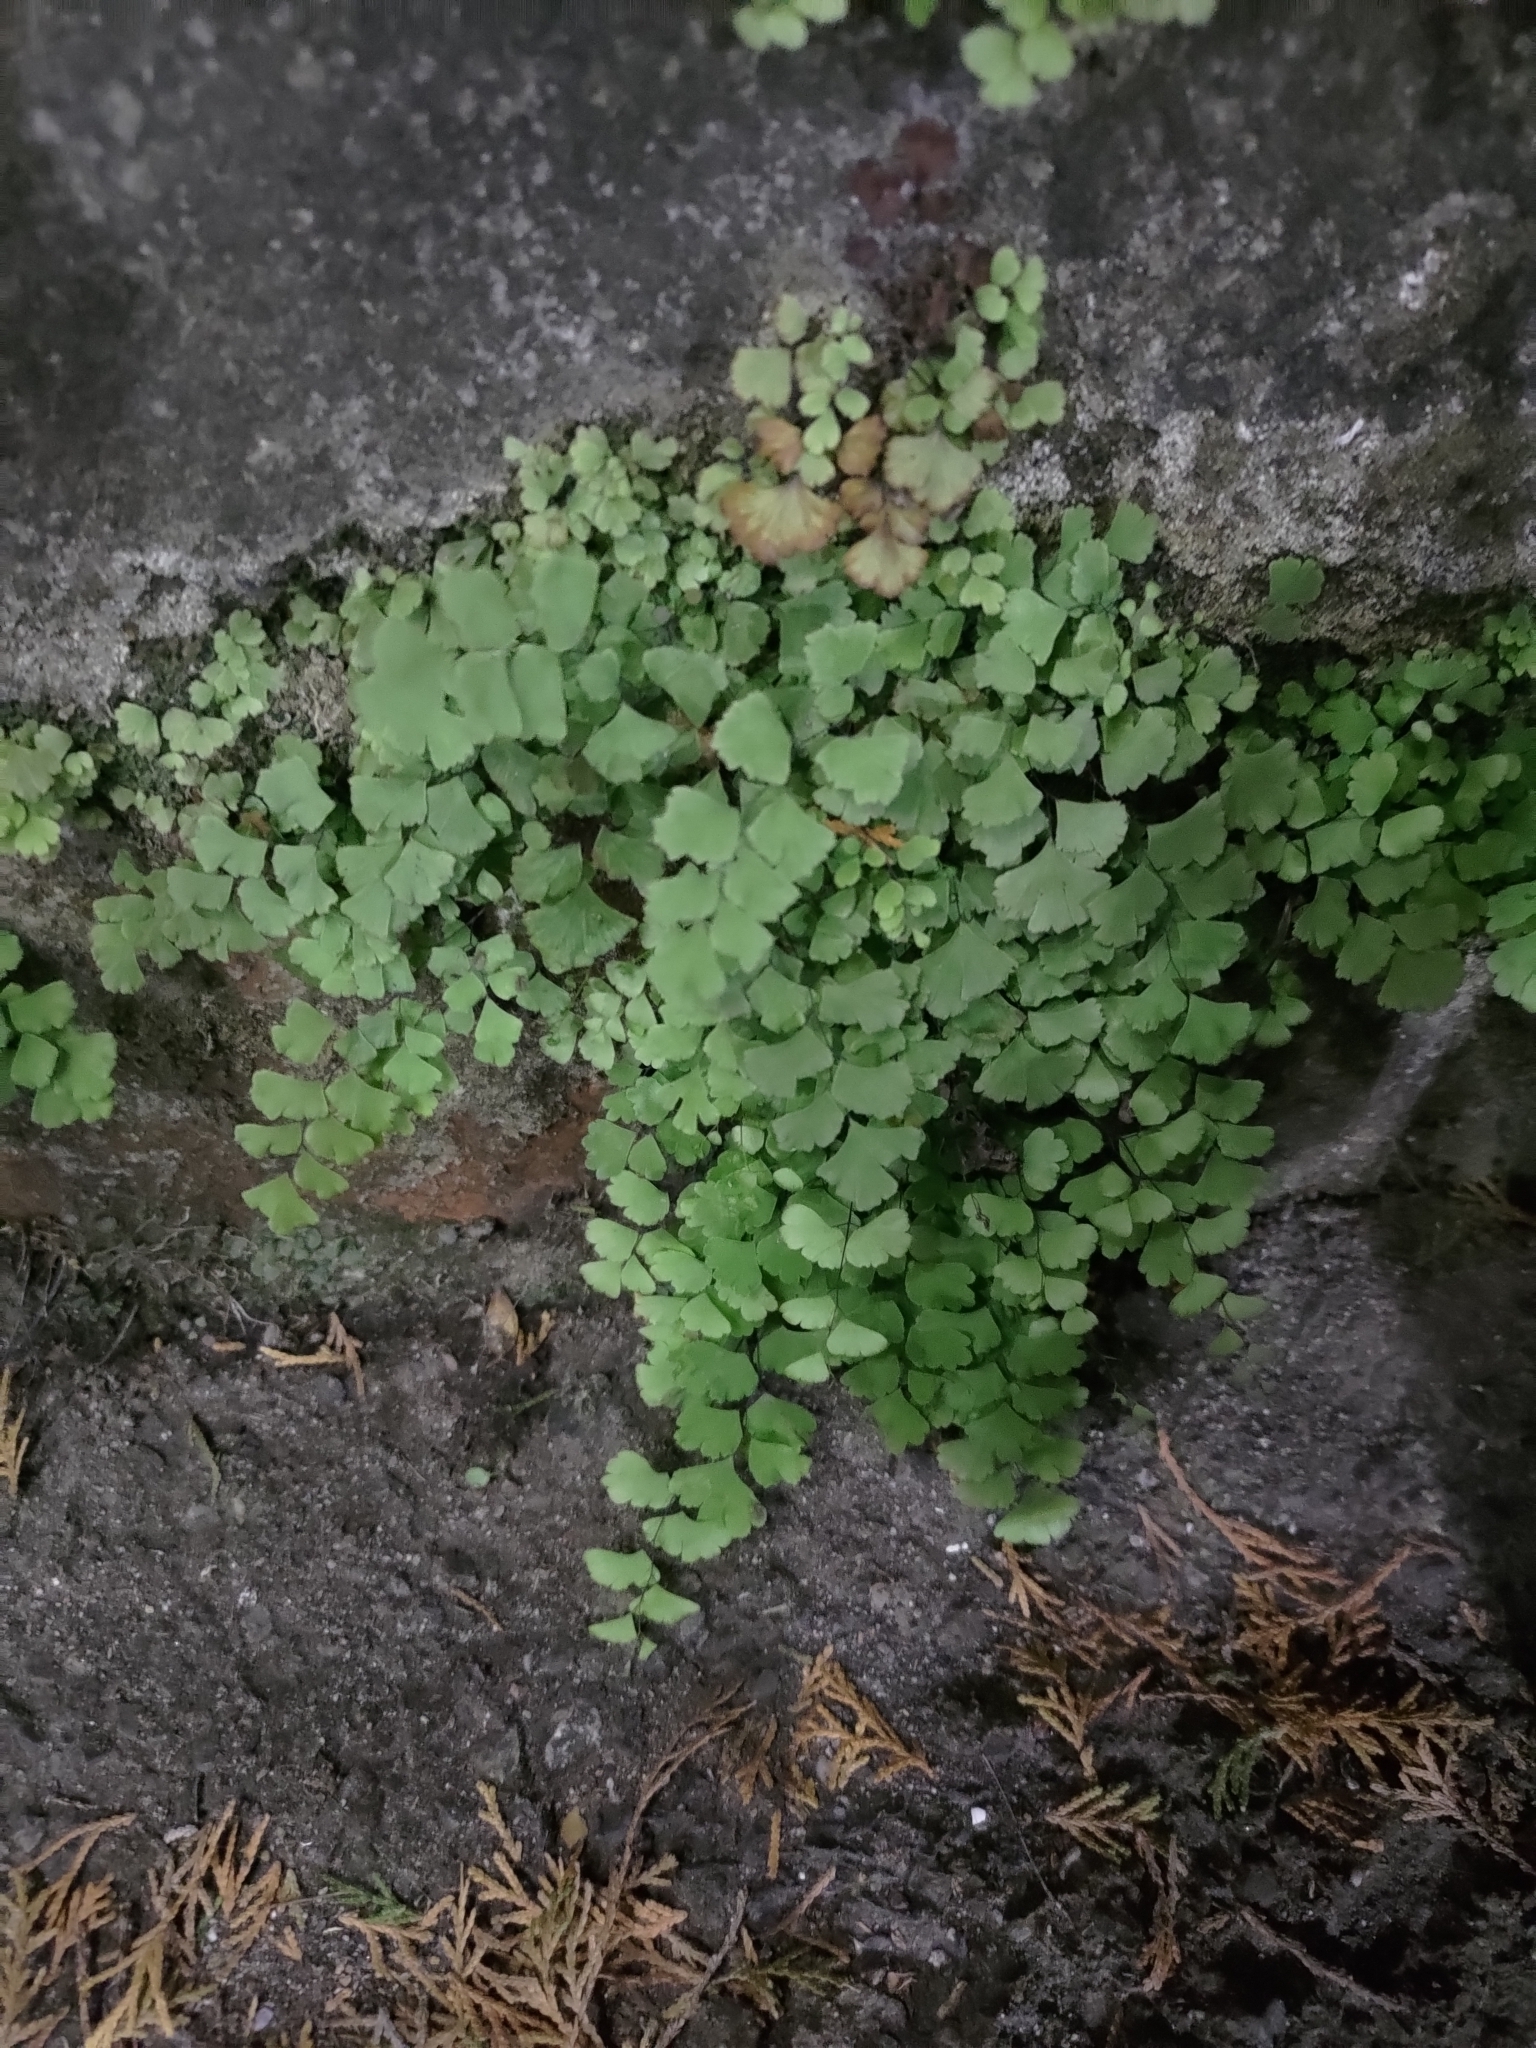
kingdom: Plantae
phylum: Tracheophyta
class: Polypodiopsida
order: Polypodiales
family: Pteridaceae
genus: Adiantum
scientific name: Adiantum capillus-veneris
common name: Maidenhair fern
